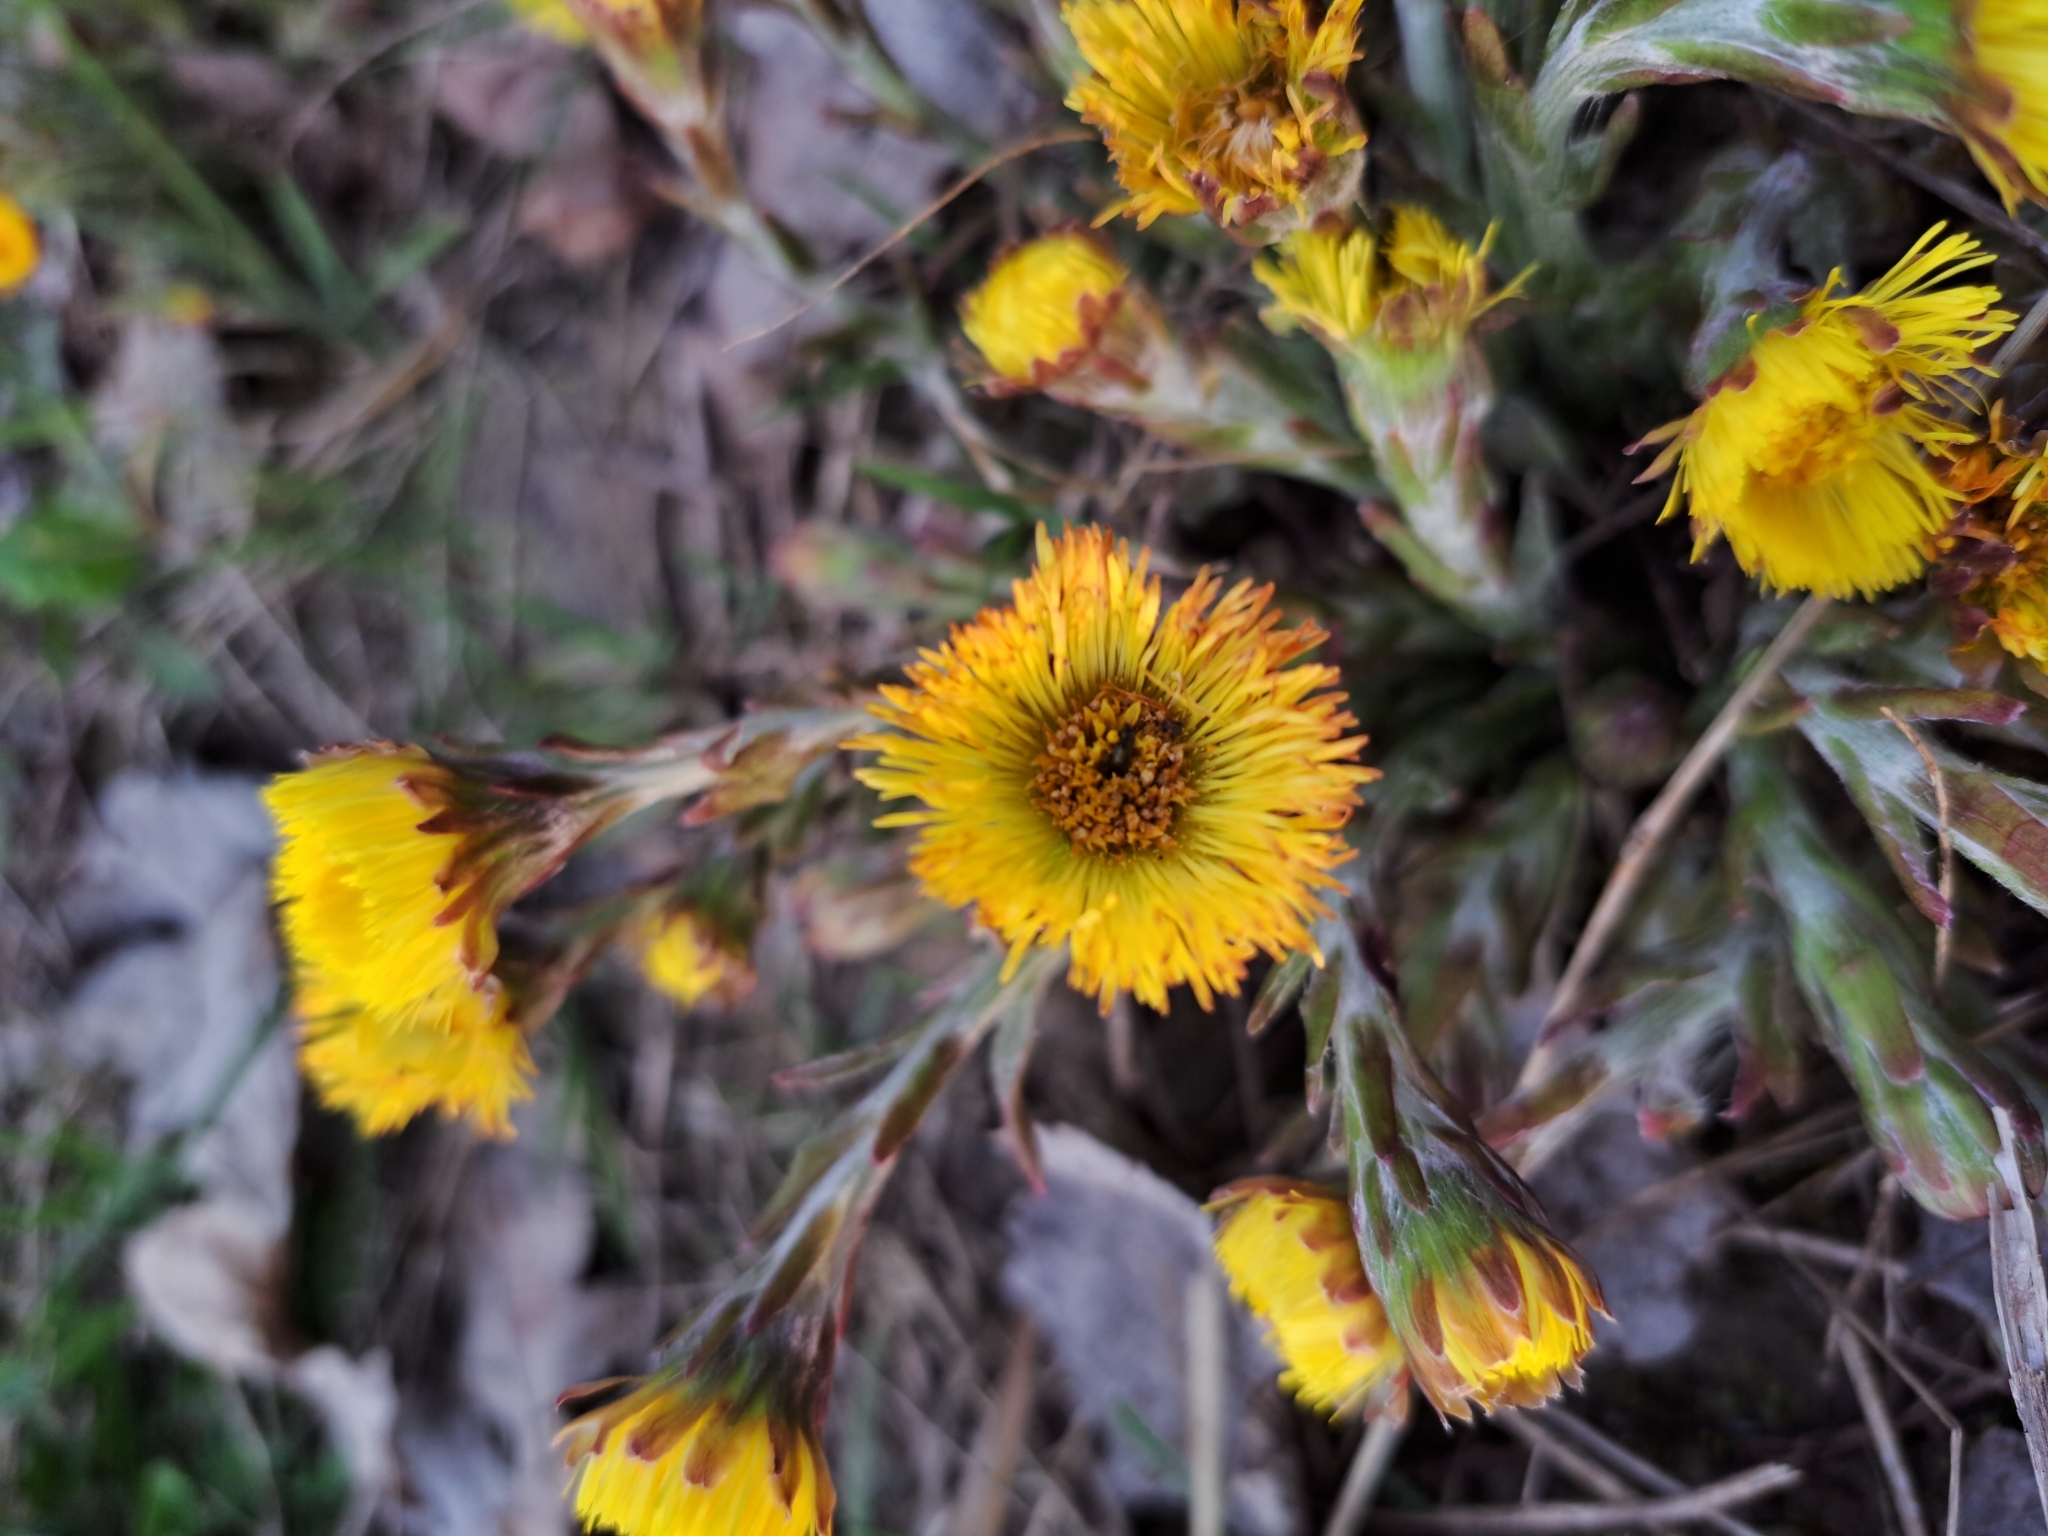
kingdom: Plantae
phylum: Tracheophyta
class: Magnoliopsida
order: Asterales
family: Asteraceae
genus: Tussilago
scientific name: Tussilago farfara
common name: Coltsfoot
